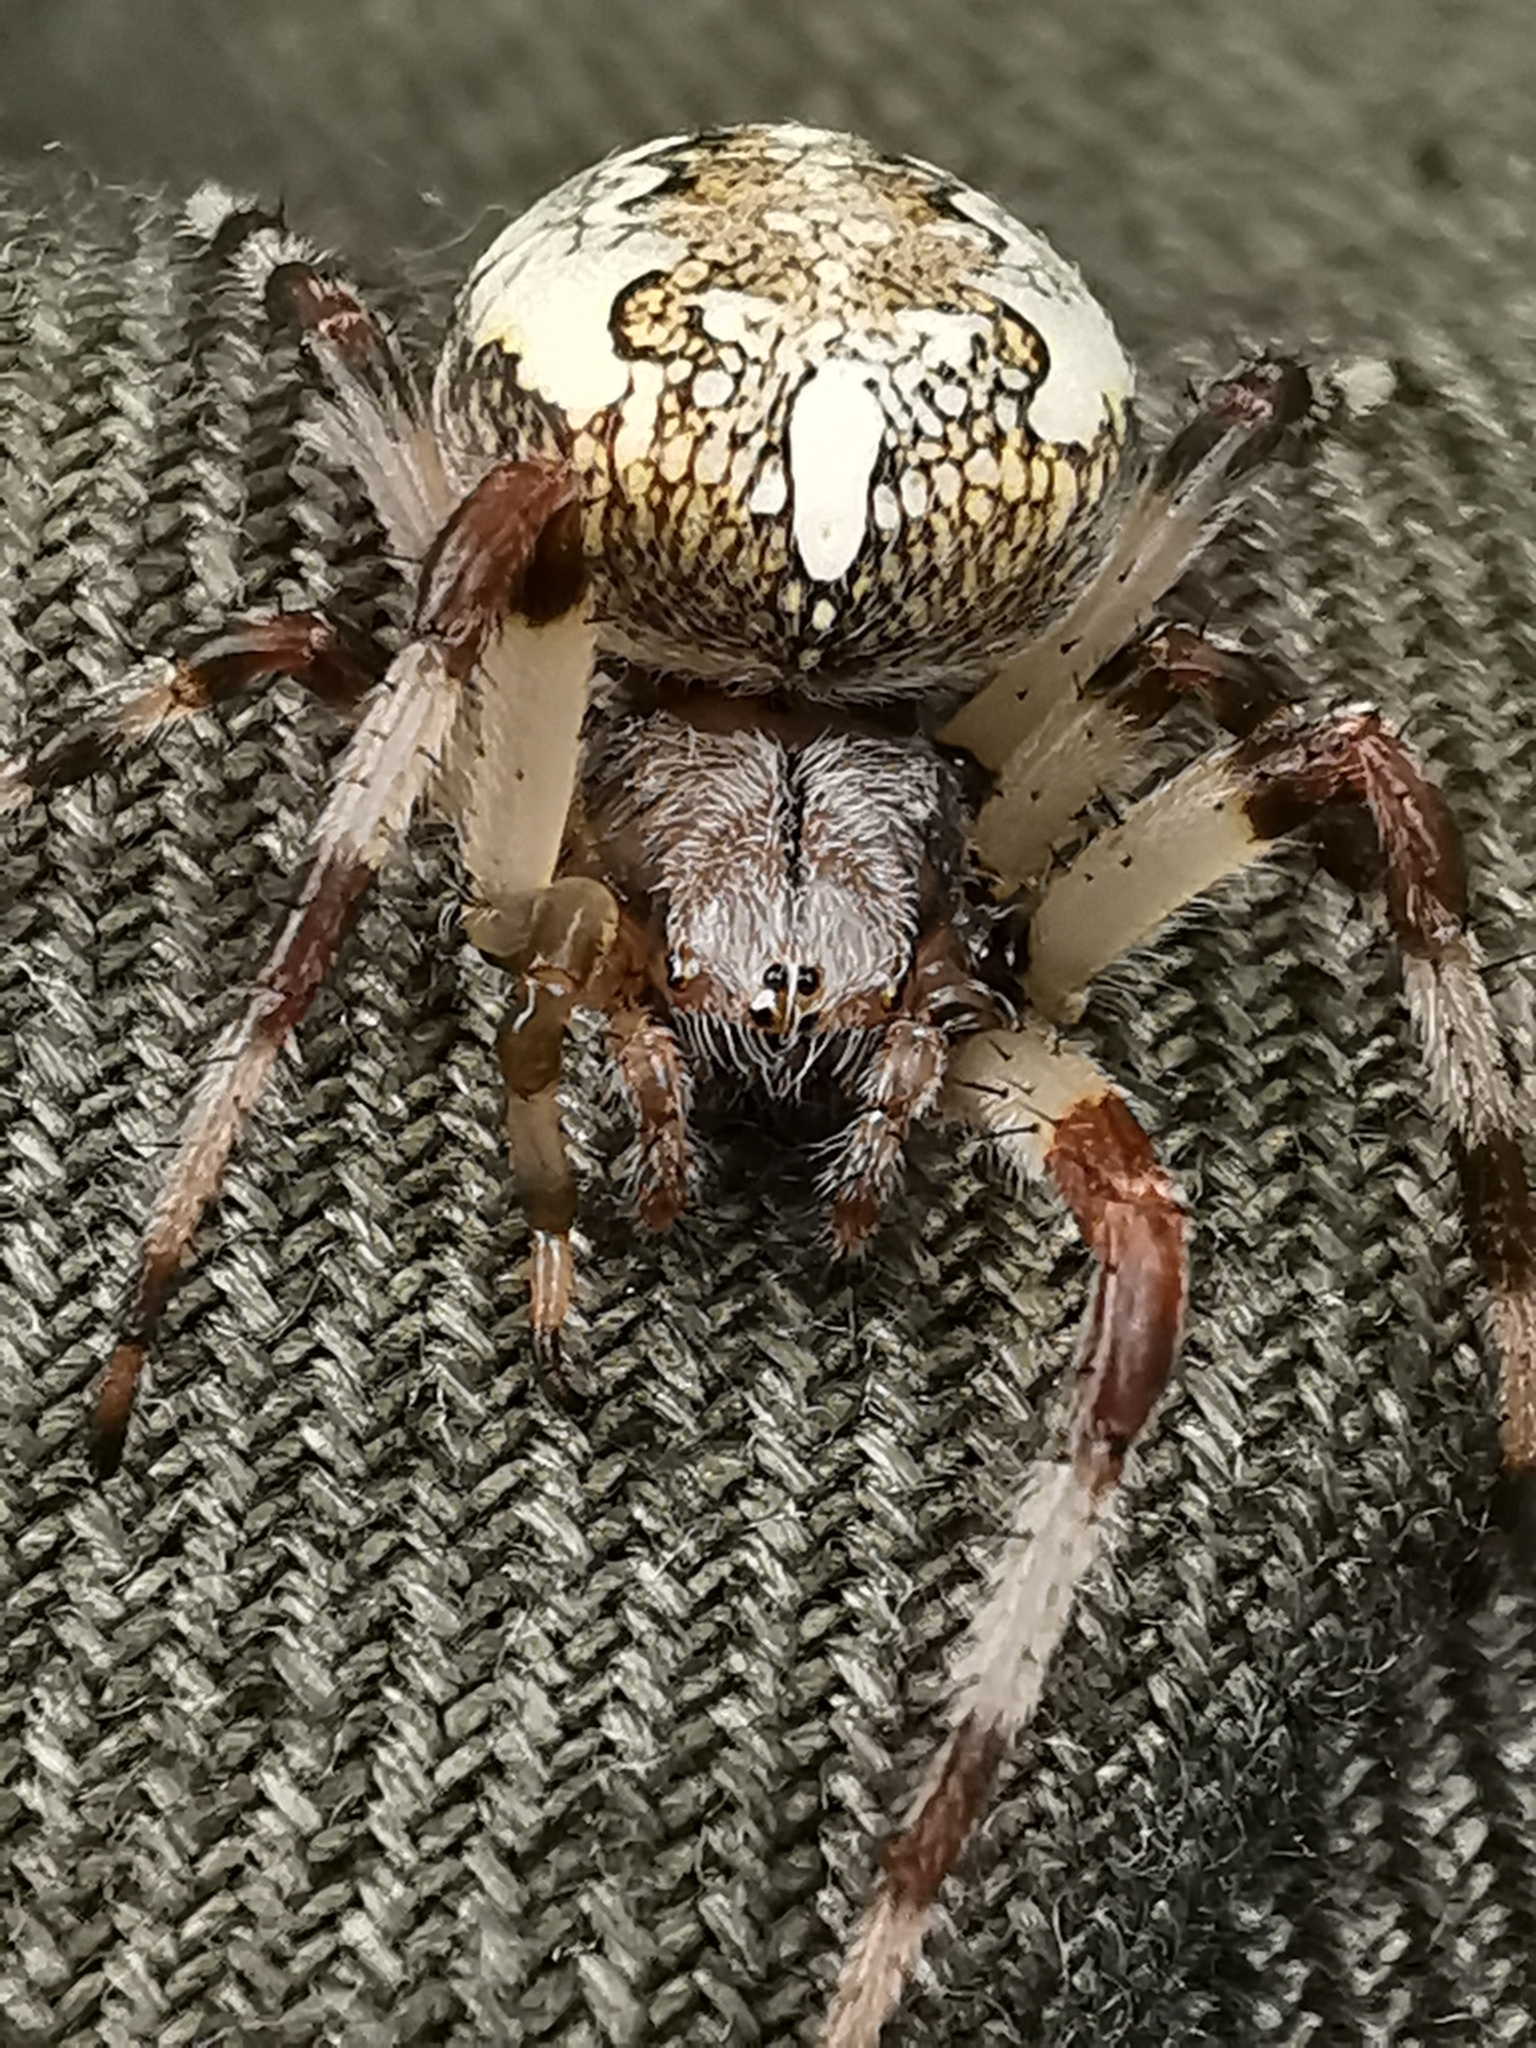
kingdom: Animalia
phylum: Arthropoda
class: Arachnida
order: Araneae
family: Araneidae
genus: Araneus
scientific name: Araneus marmoreus
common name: Marbled orbweaver
